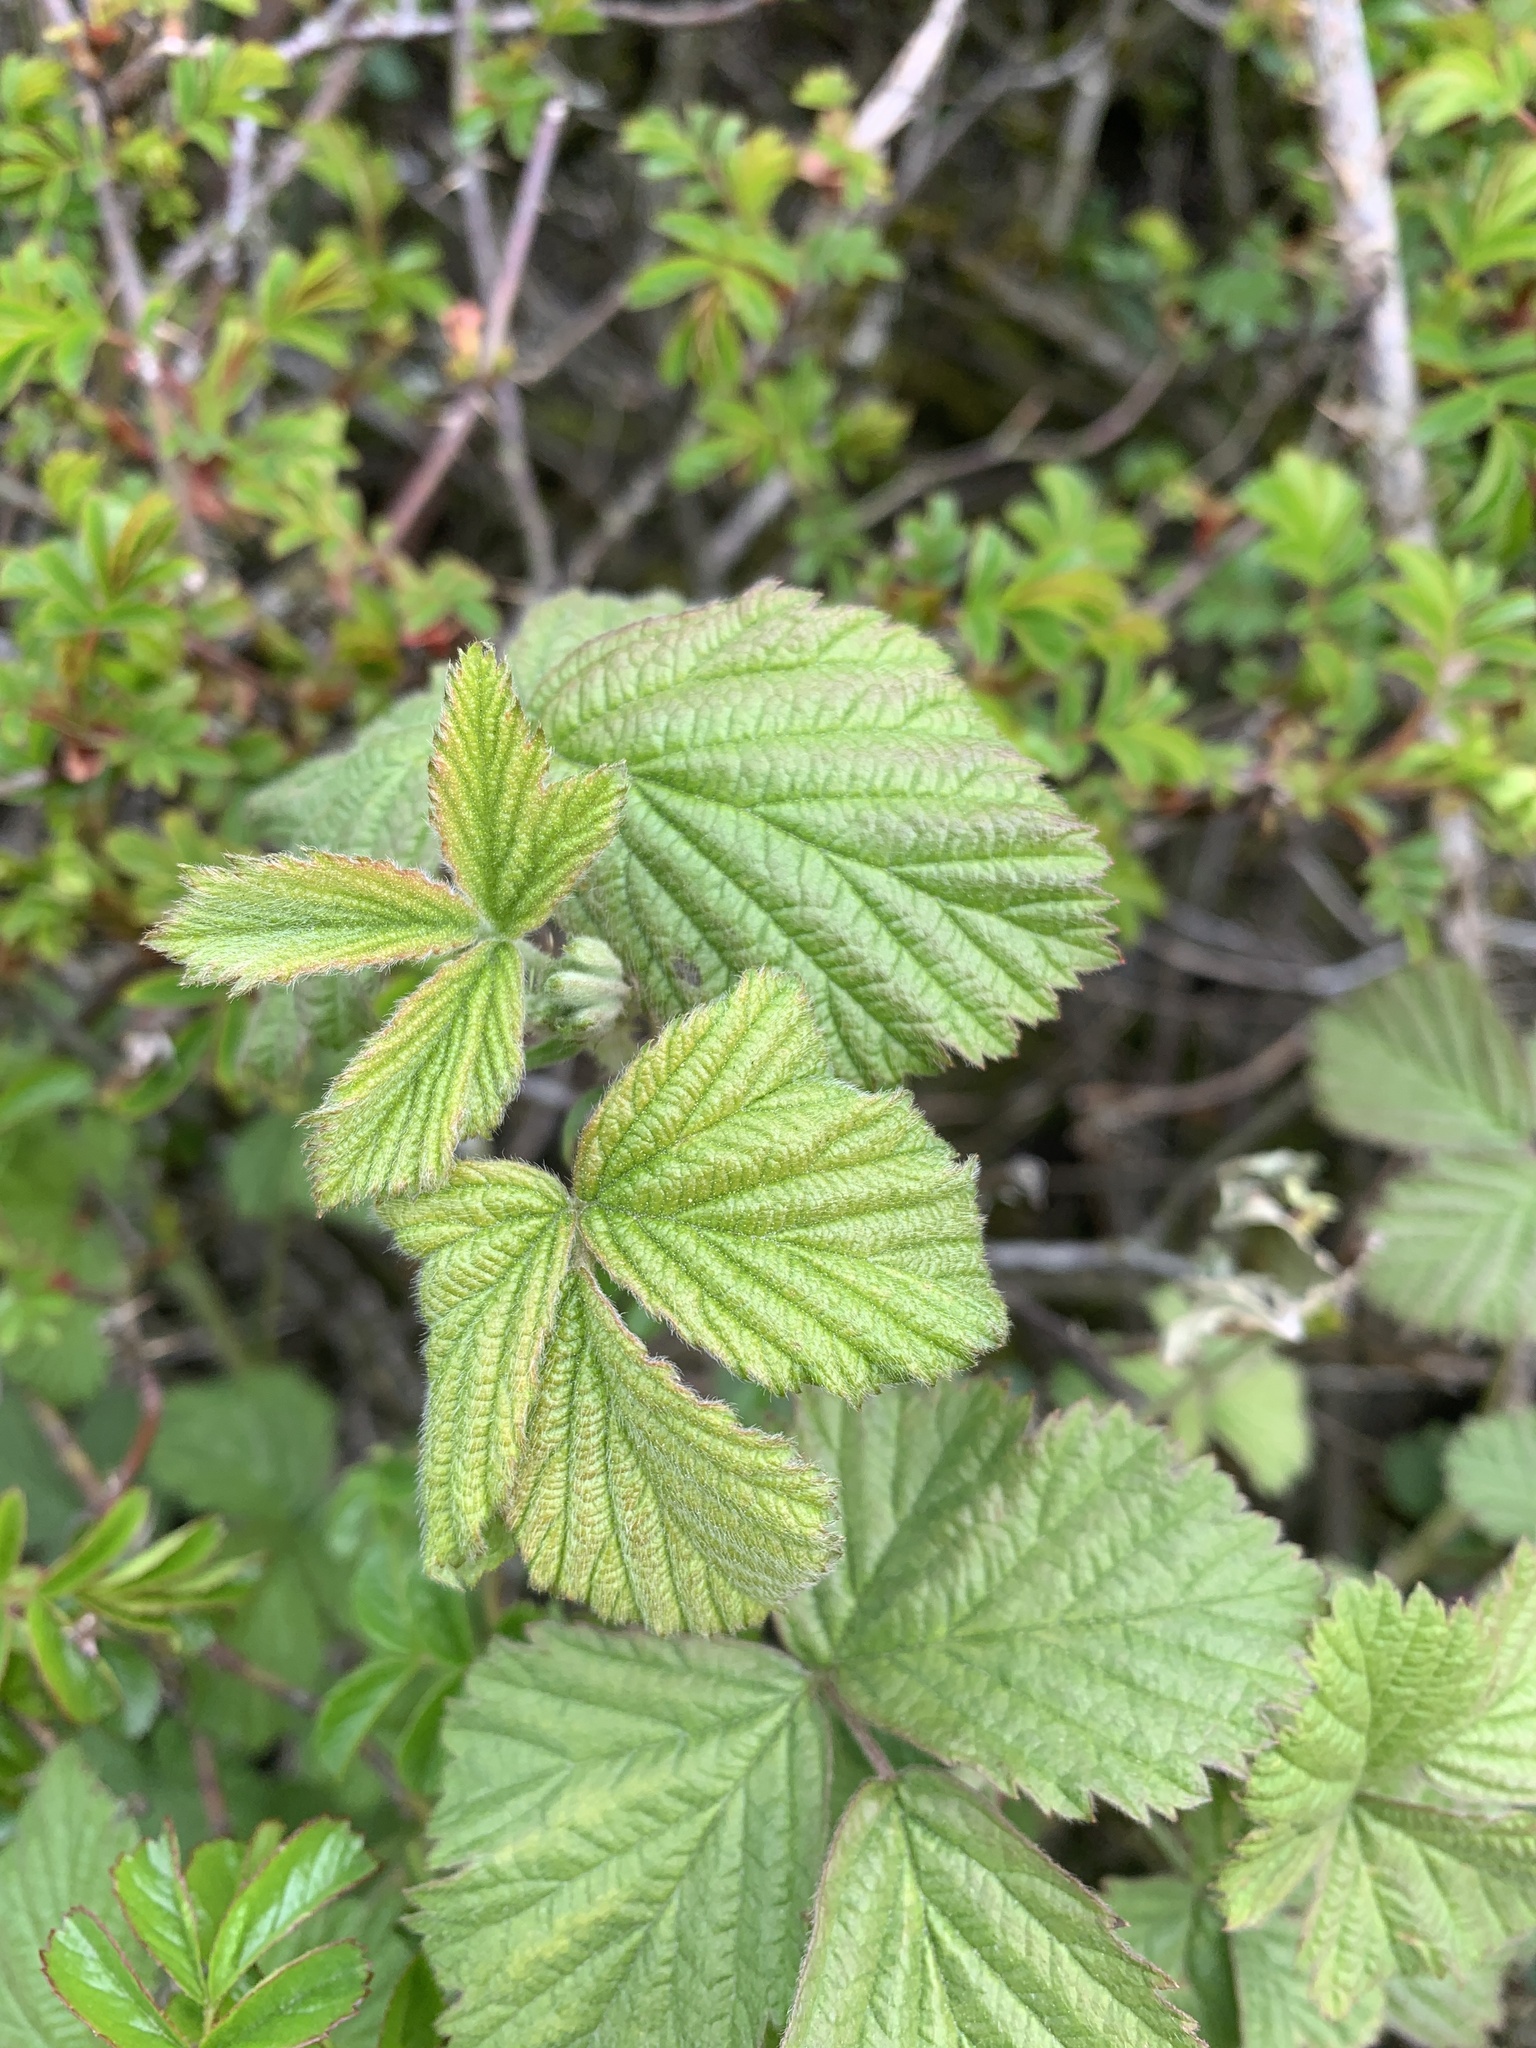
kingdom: Plantae
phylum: Tracheophyta
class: Magnoliopsida
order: Rosales
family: Rosaceae
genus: Rubus
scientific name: Rubus fruticosus
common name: Blackberry, bramble
